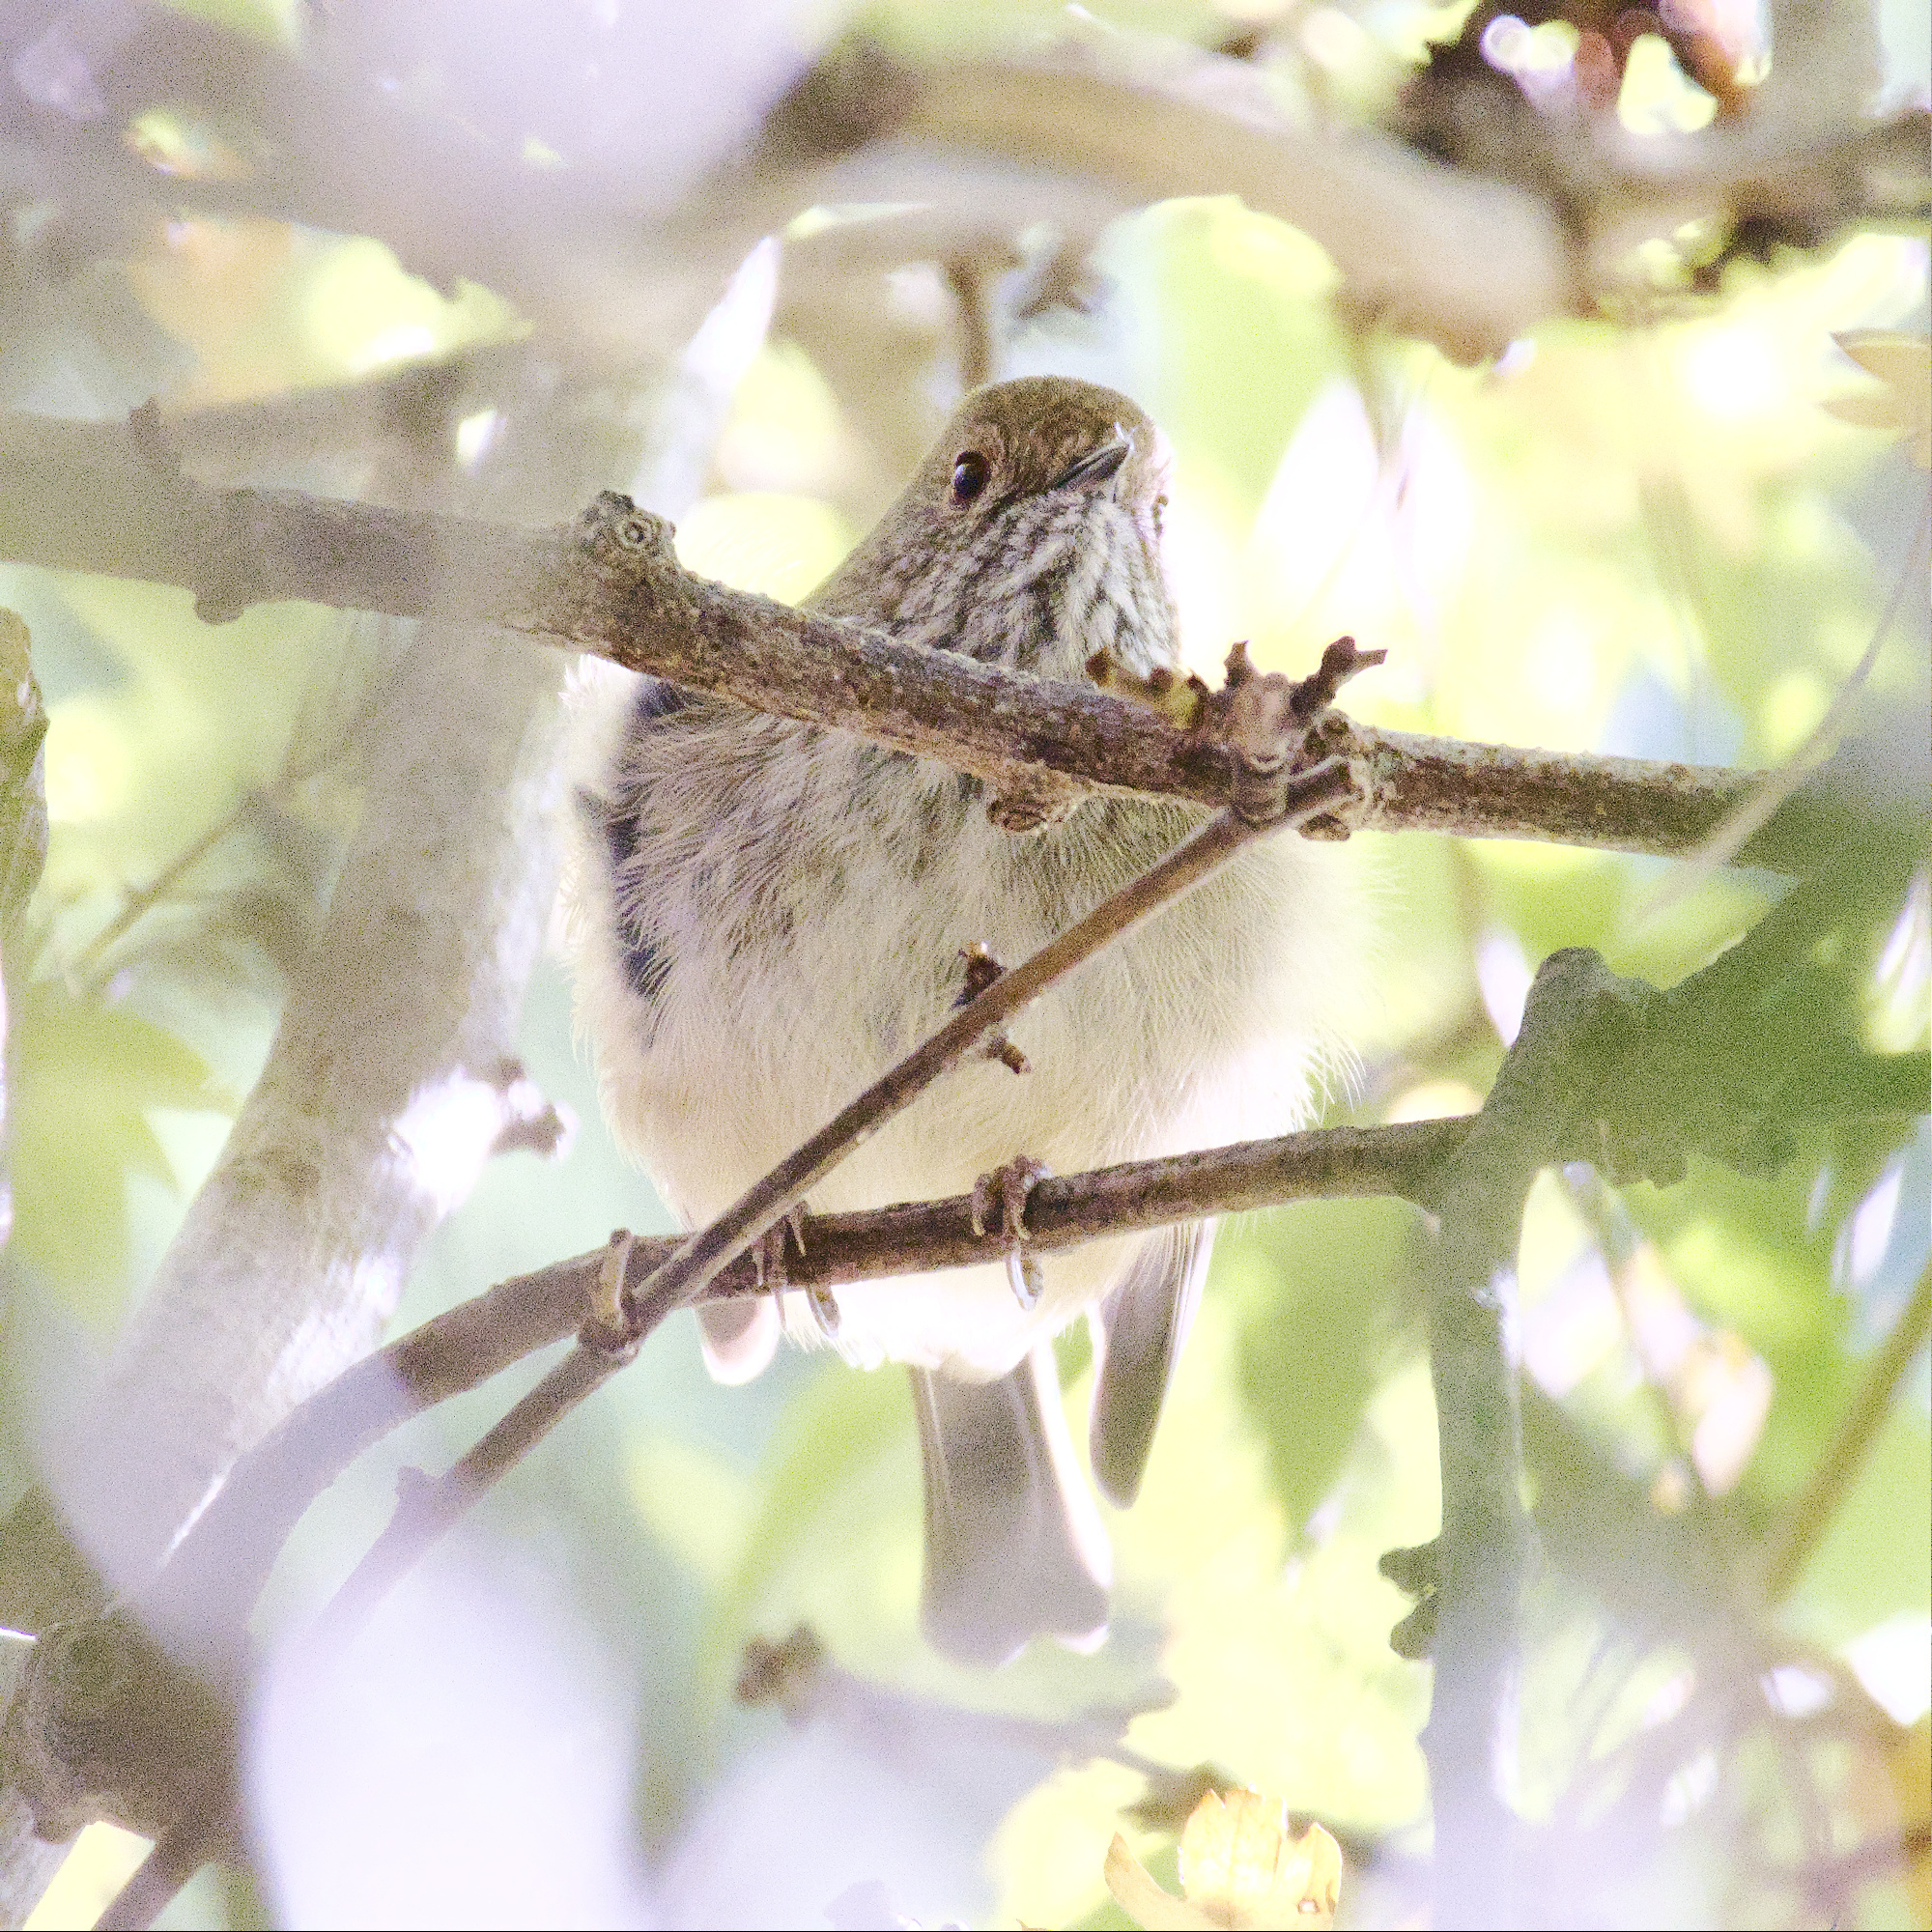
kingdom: Animalia
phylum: Chordata
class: Aves
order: Passeriformes
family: Acanthizidae
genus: Acanthiza
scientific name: Acanthiza pusilla
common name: Brown thornbill
